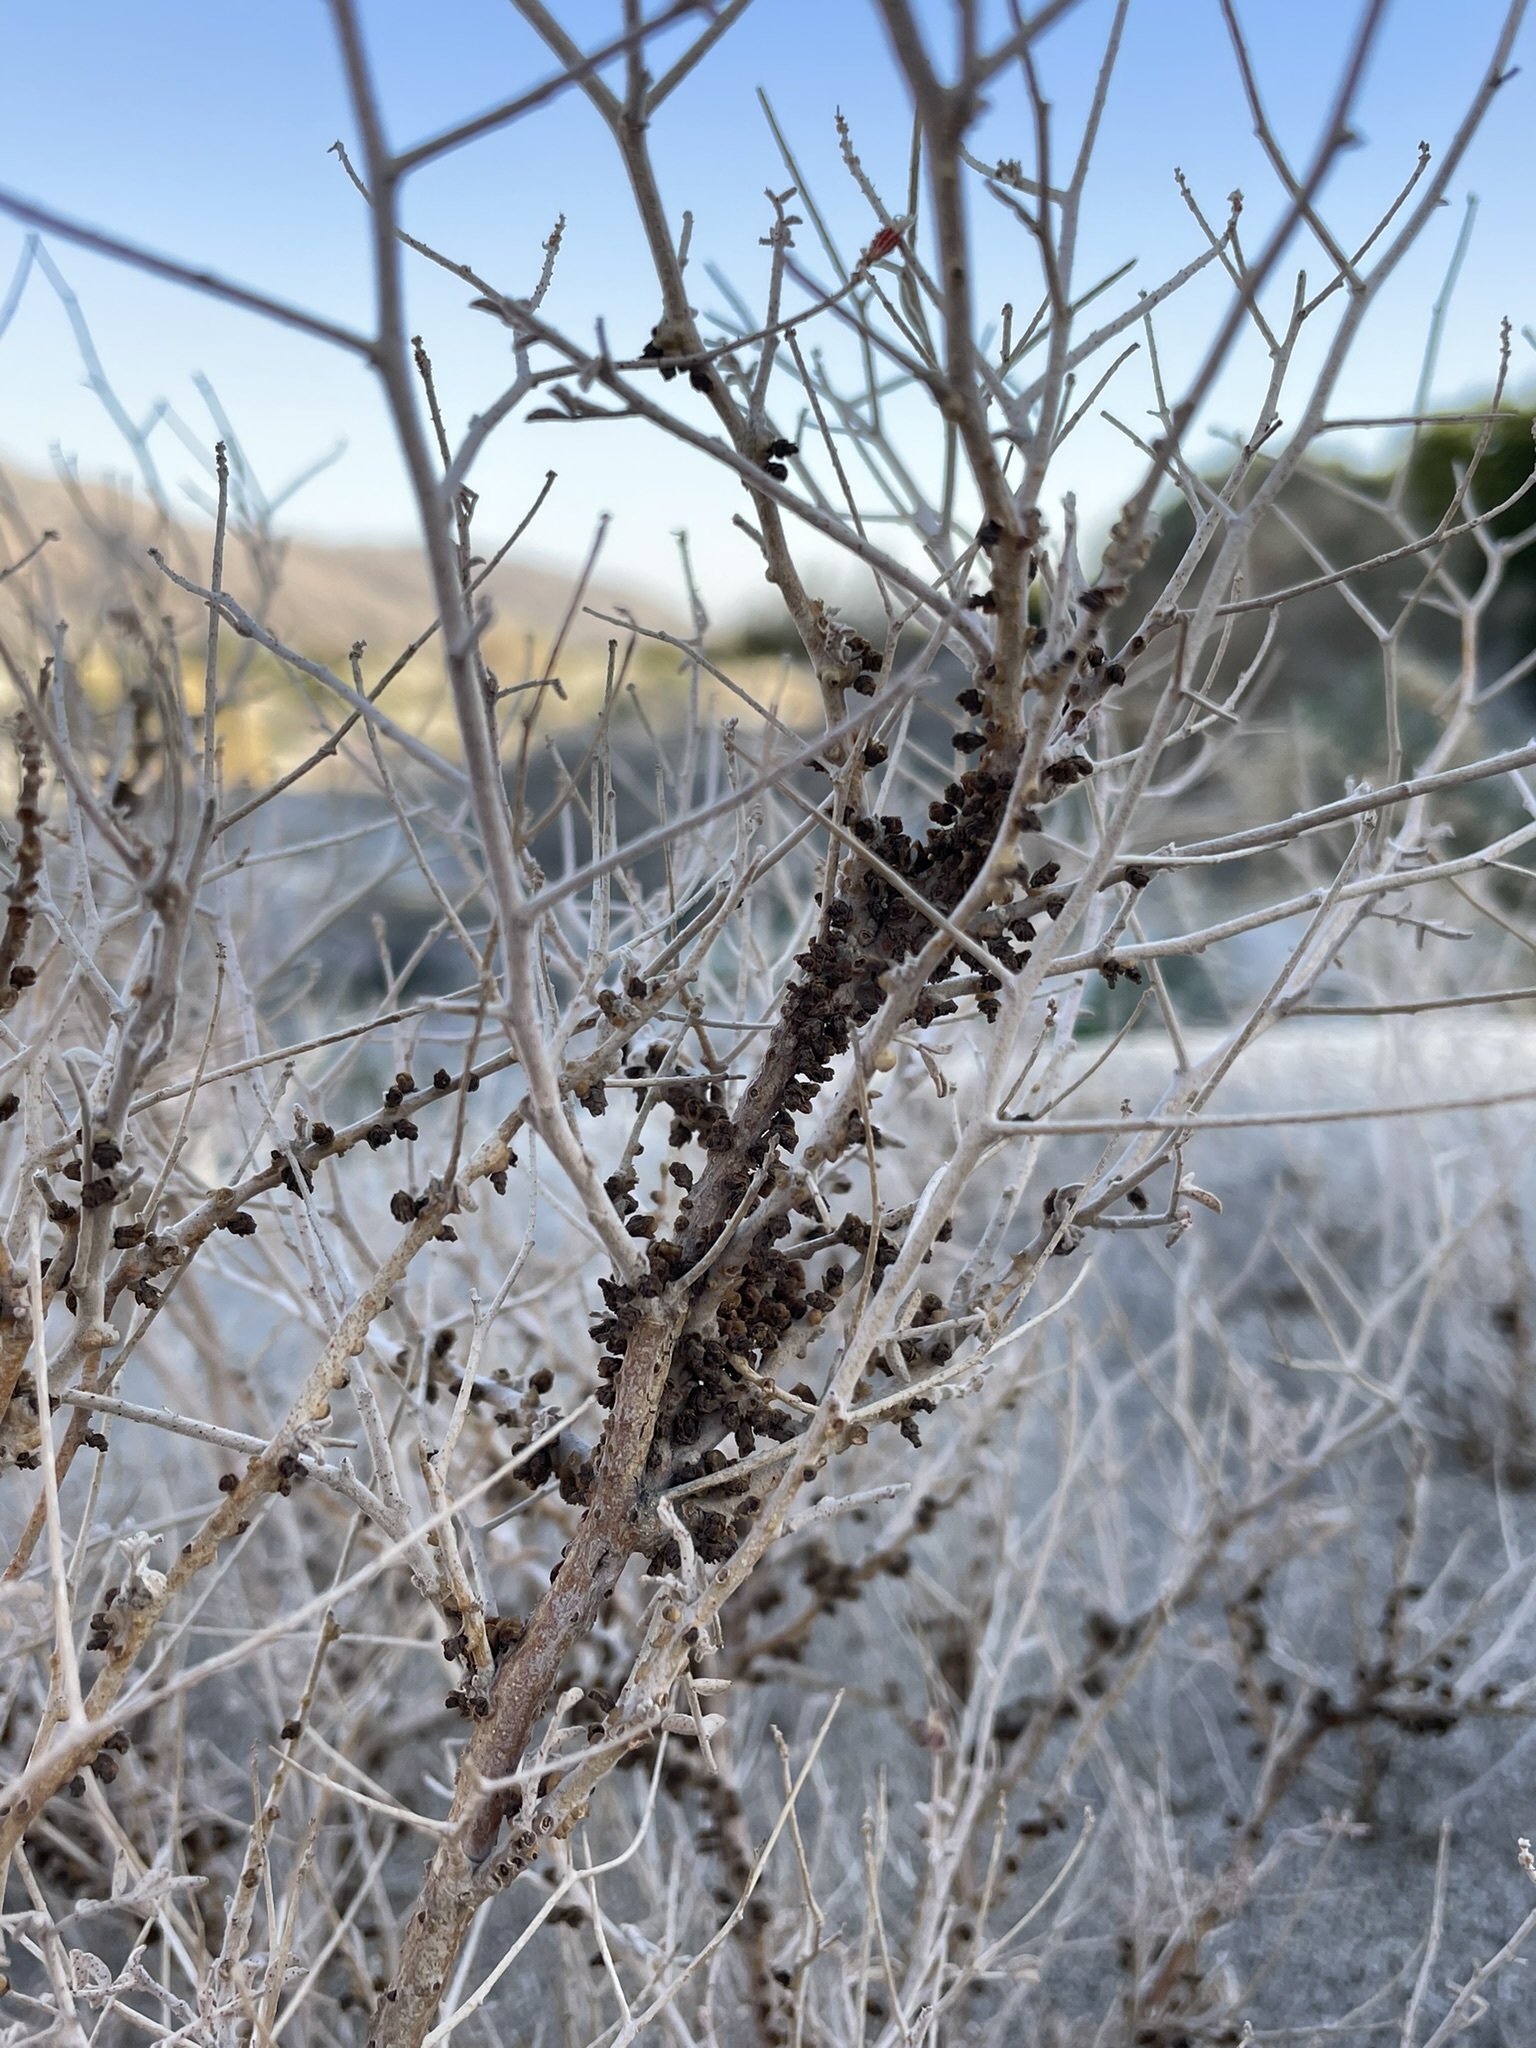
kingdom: Plantae
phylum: Tracheophyta
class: Magnoliopsida
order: Cucurbitales
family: Apodanthaceae
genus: Pilostyles
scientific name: Pilostyles thurberi
